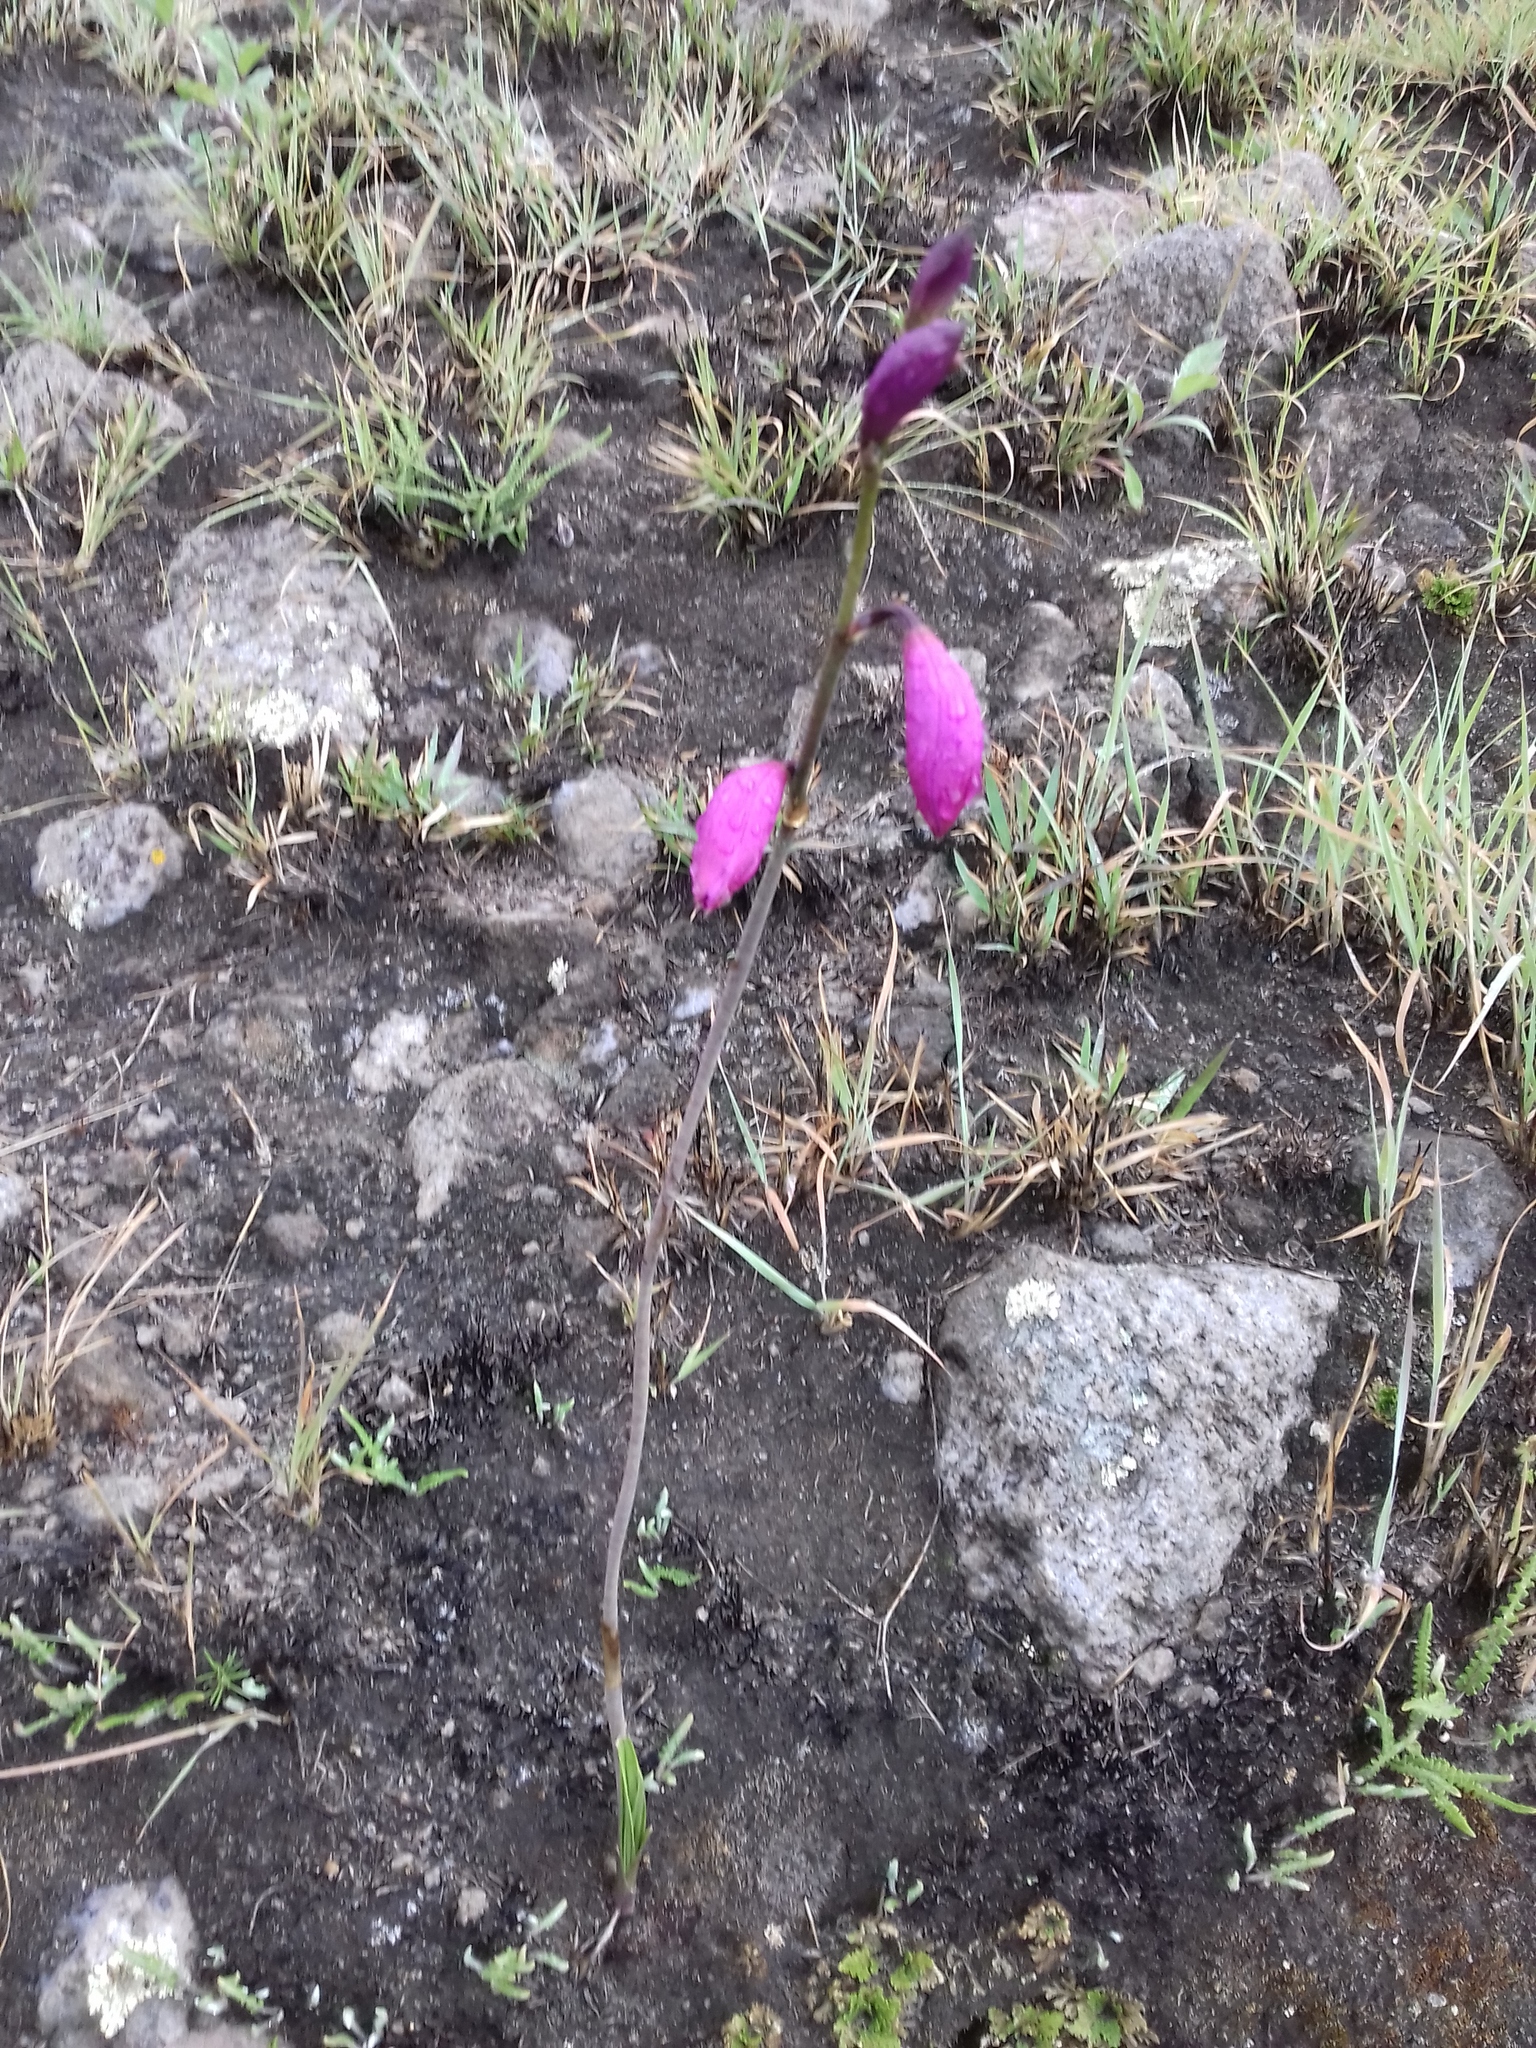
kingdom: Plantae
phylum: Tracheophyta
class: Liliopsida
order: Asparagales
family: Orchidaceae
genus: Bletia
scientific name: Bletia campanulata
